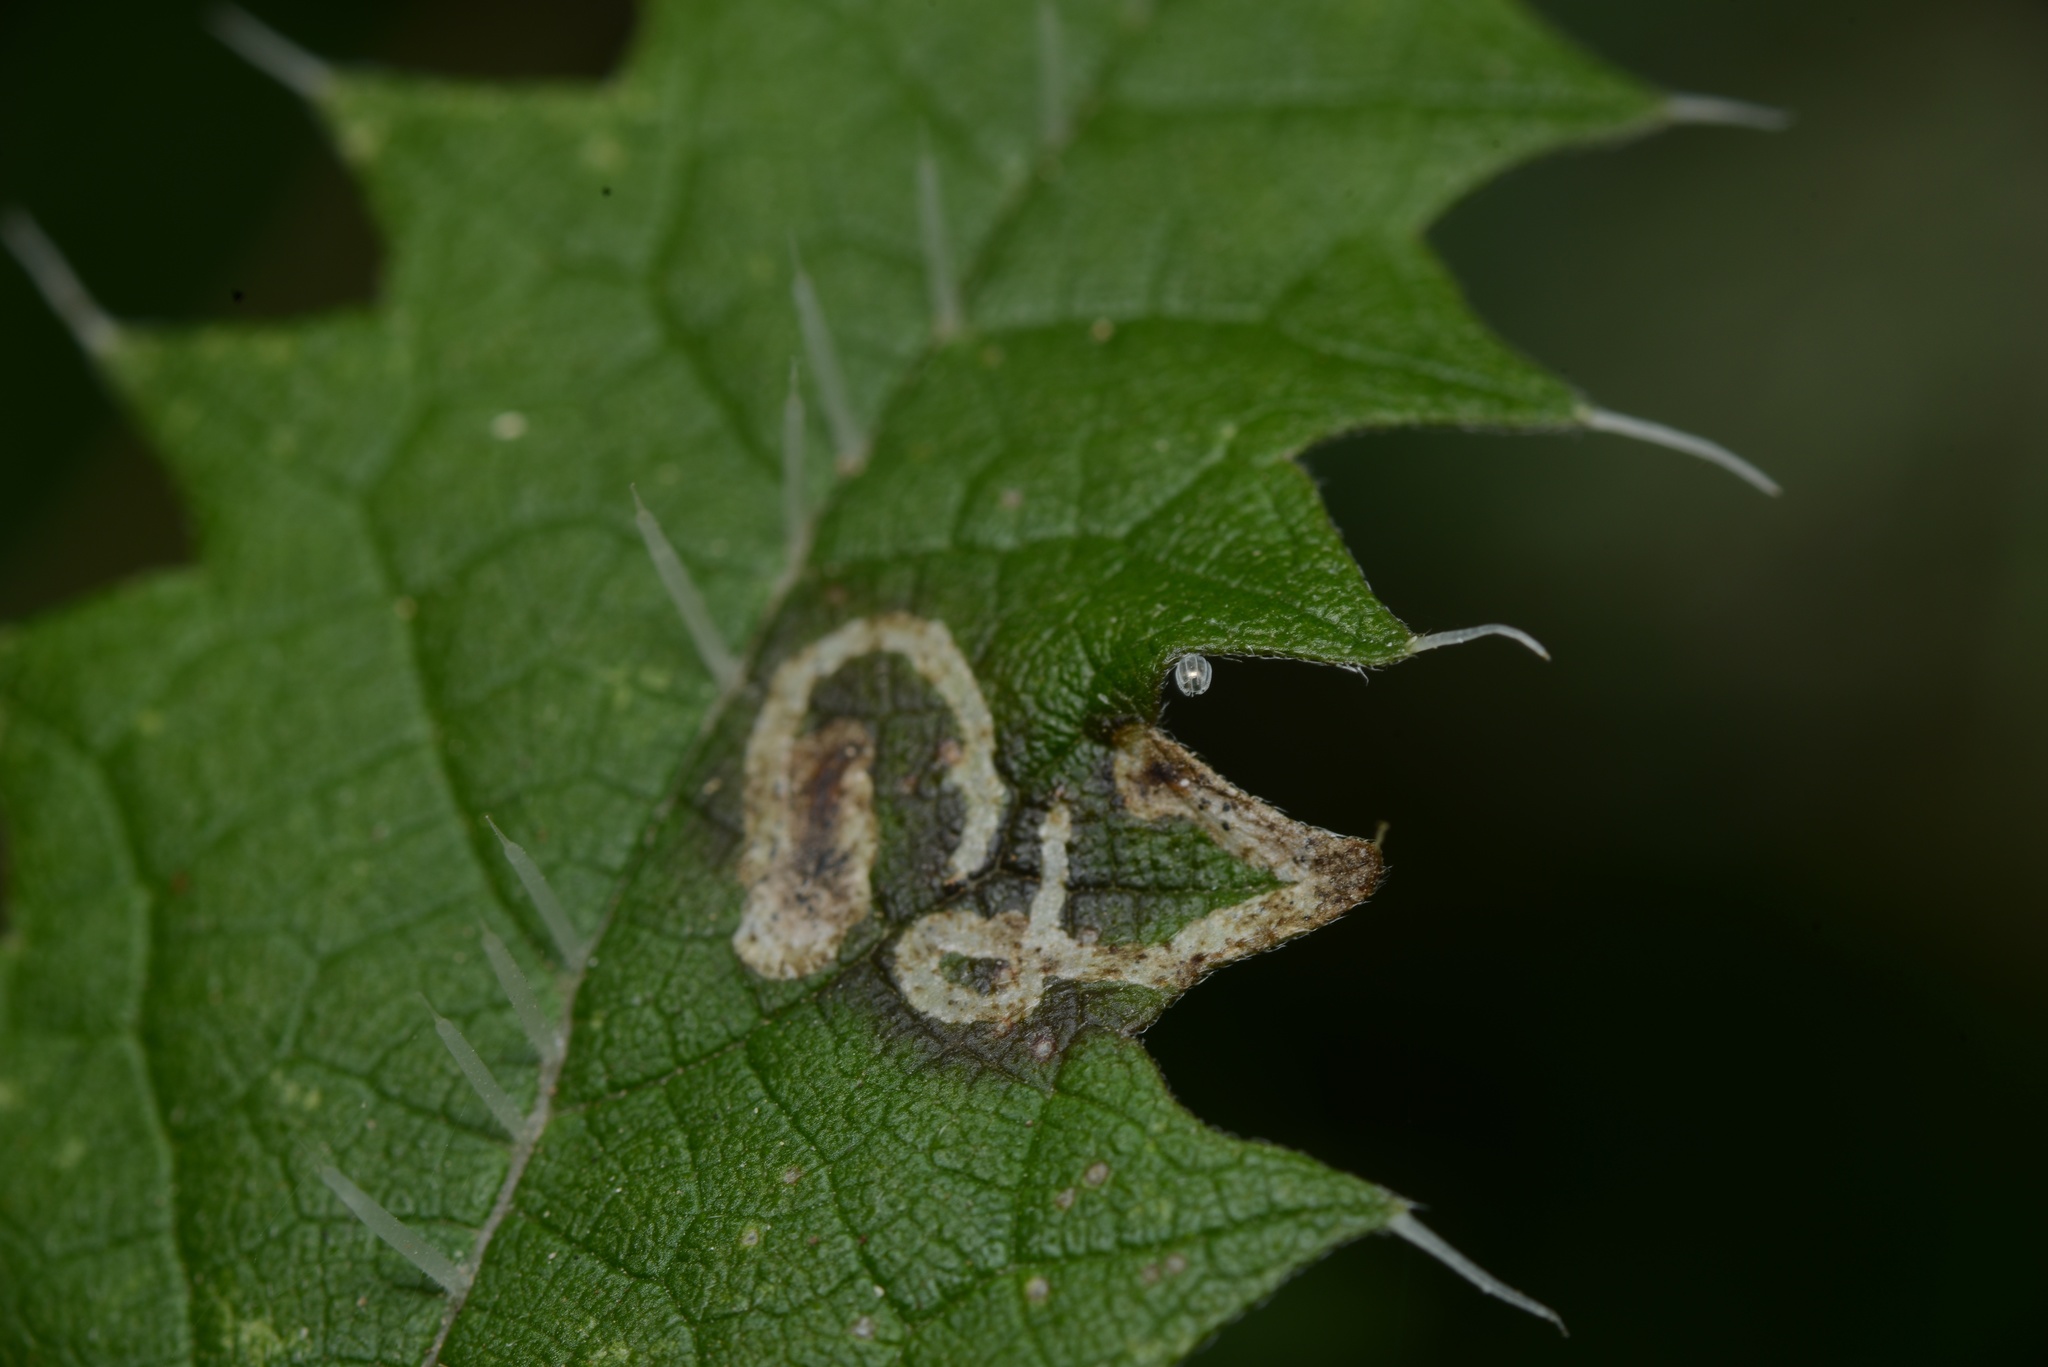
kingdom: Animalia
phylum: Arthropoda
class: Insecta
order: Diptera
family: Agromyzidae
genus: Liriomyza
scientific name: Liriomyza urticae
